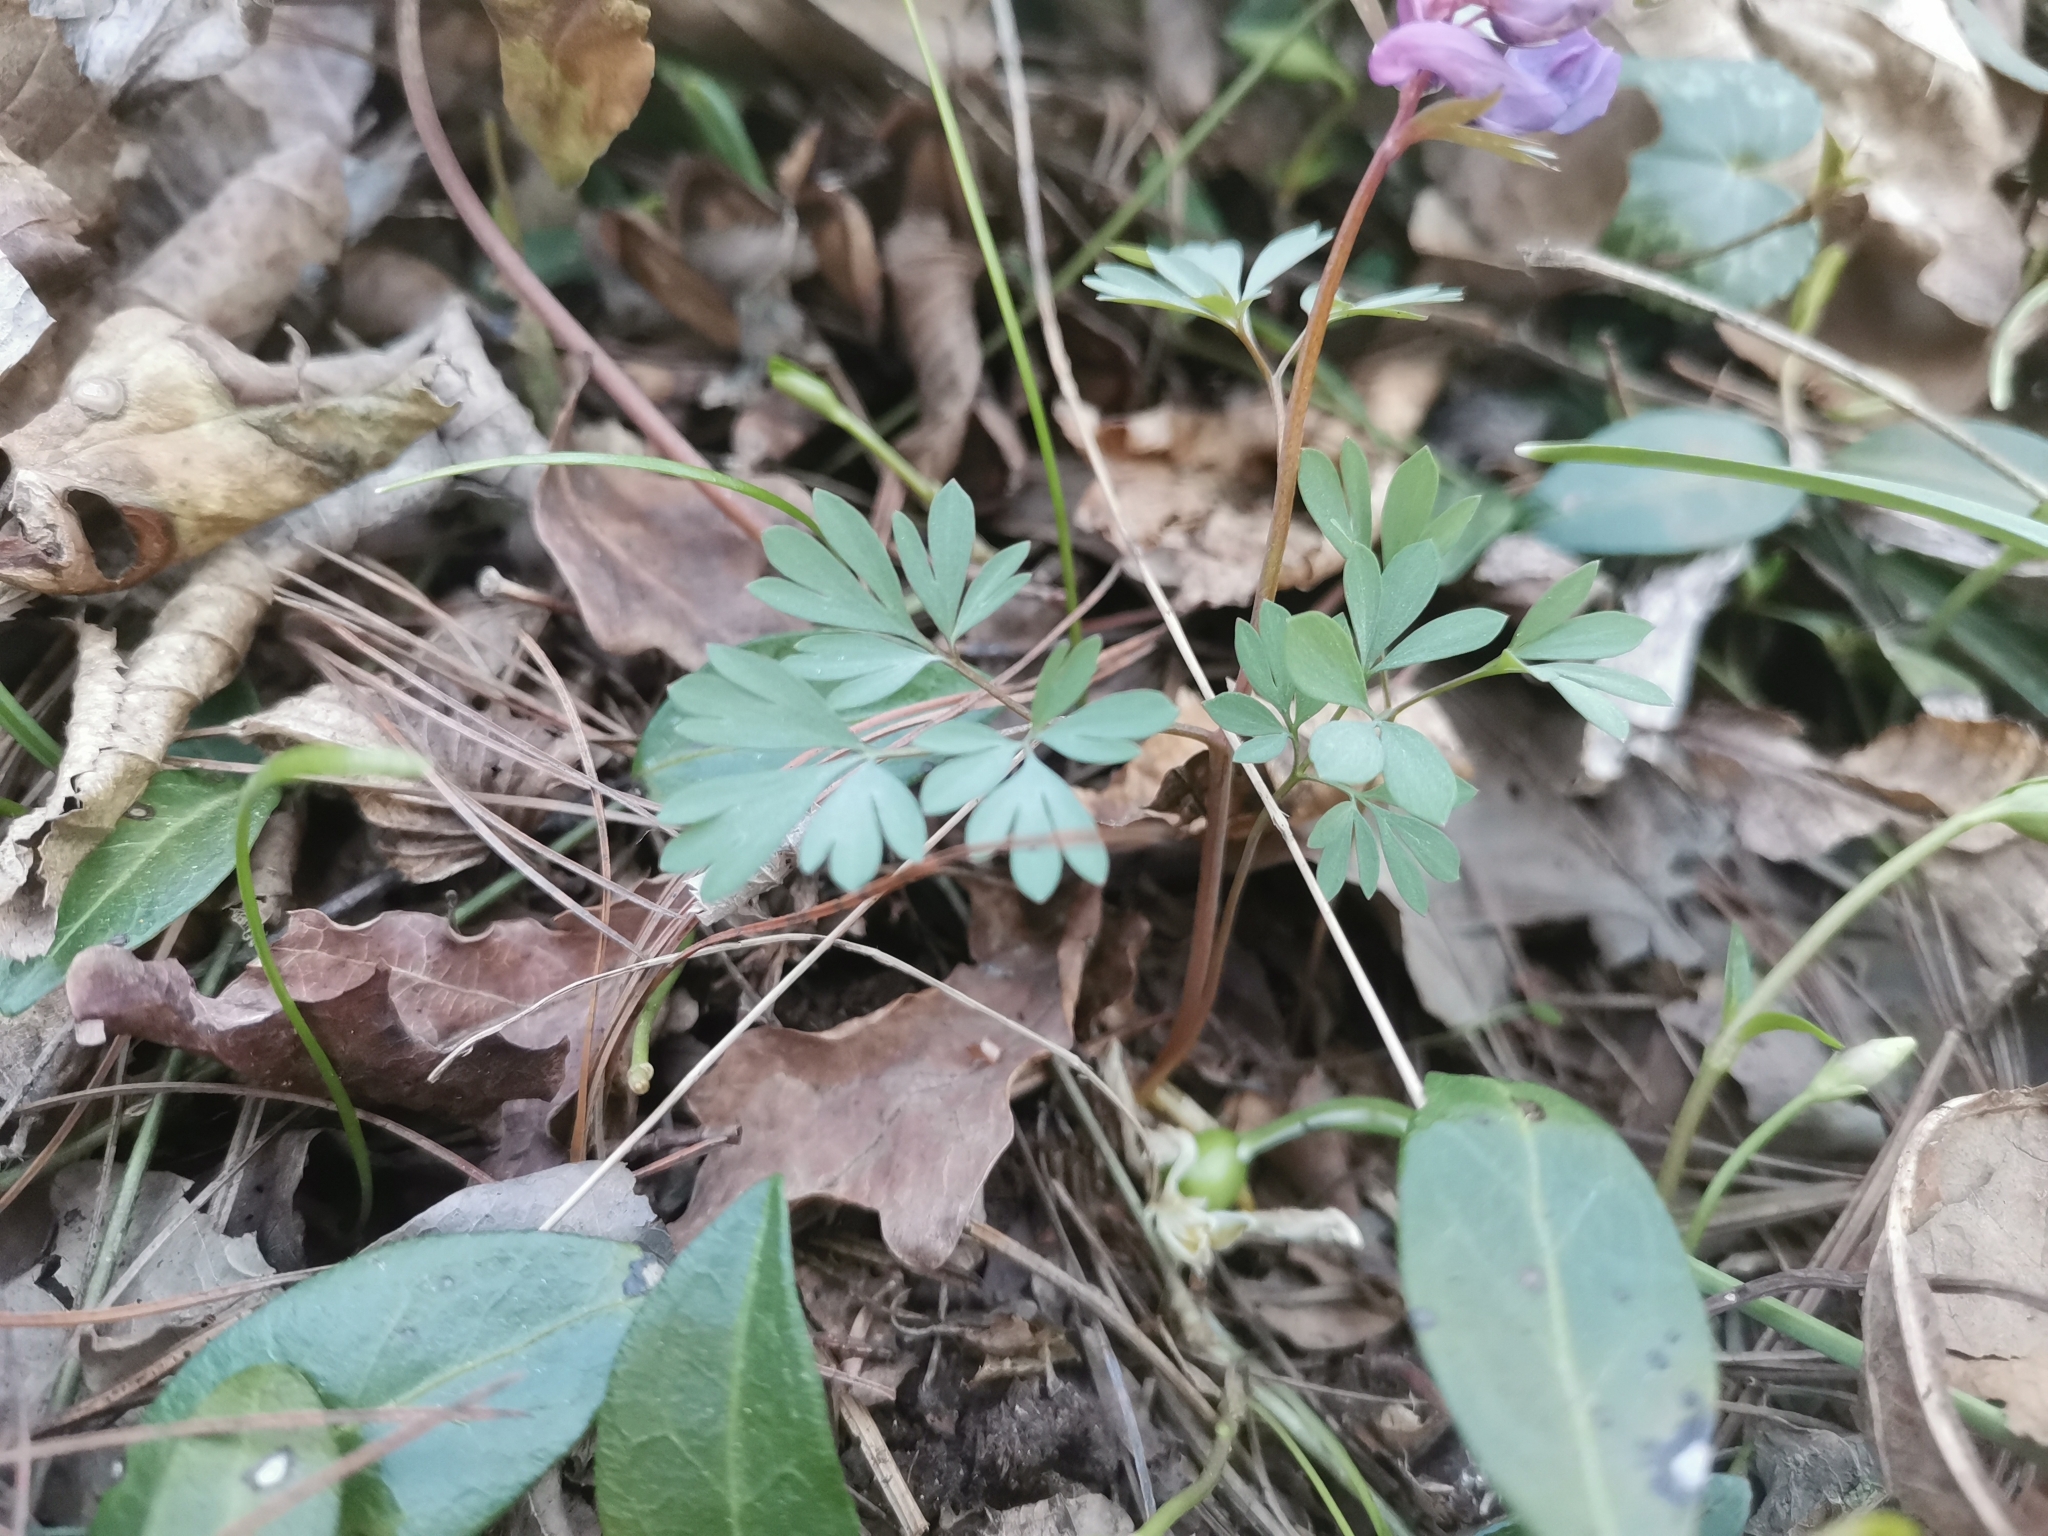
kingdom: Plantae
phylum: Tracheophyta
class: Magnoliopsida
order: Ranunculales
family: Papaveraceae
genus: Corydalis
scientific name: Corydalis solida
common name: Bird-in-a-bush
